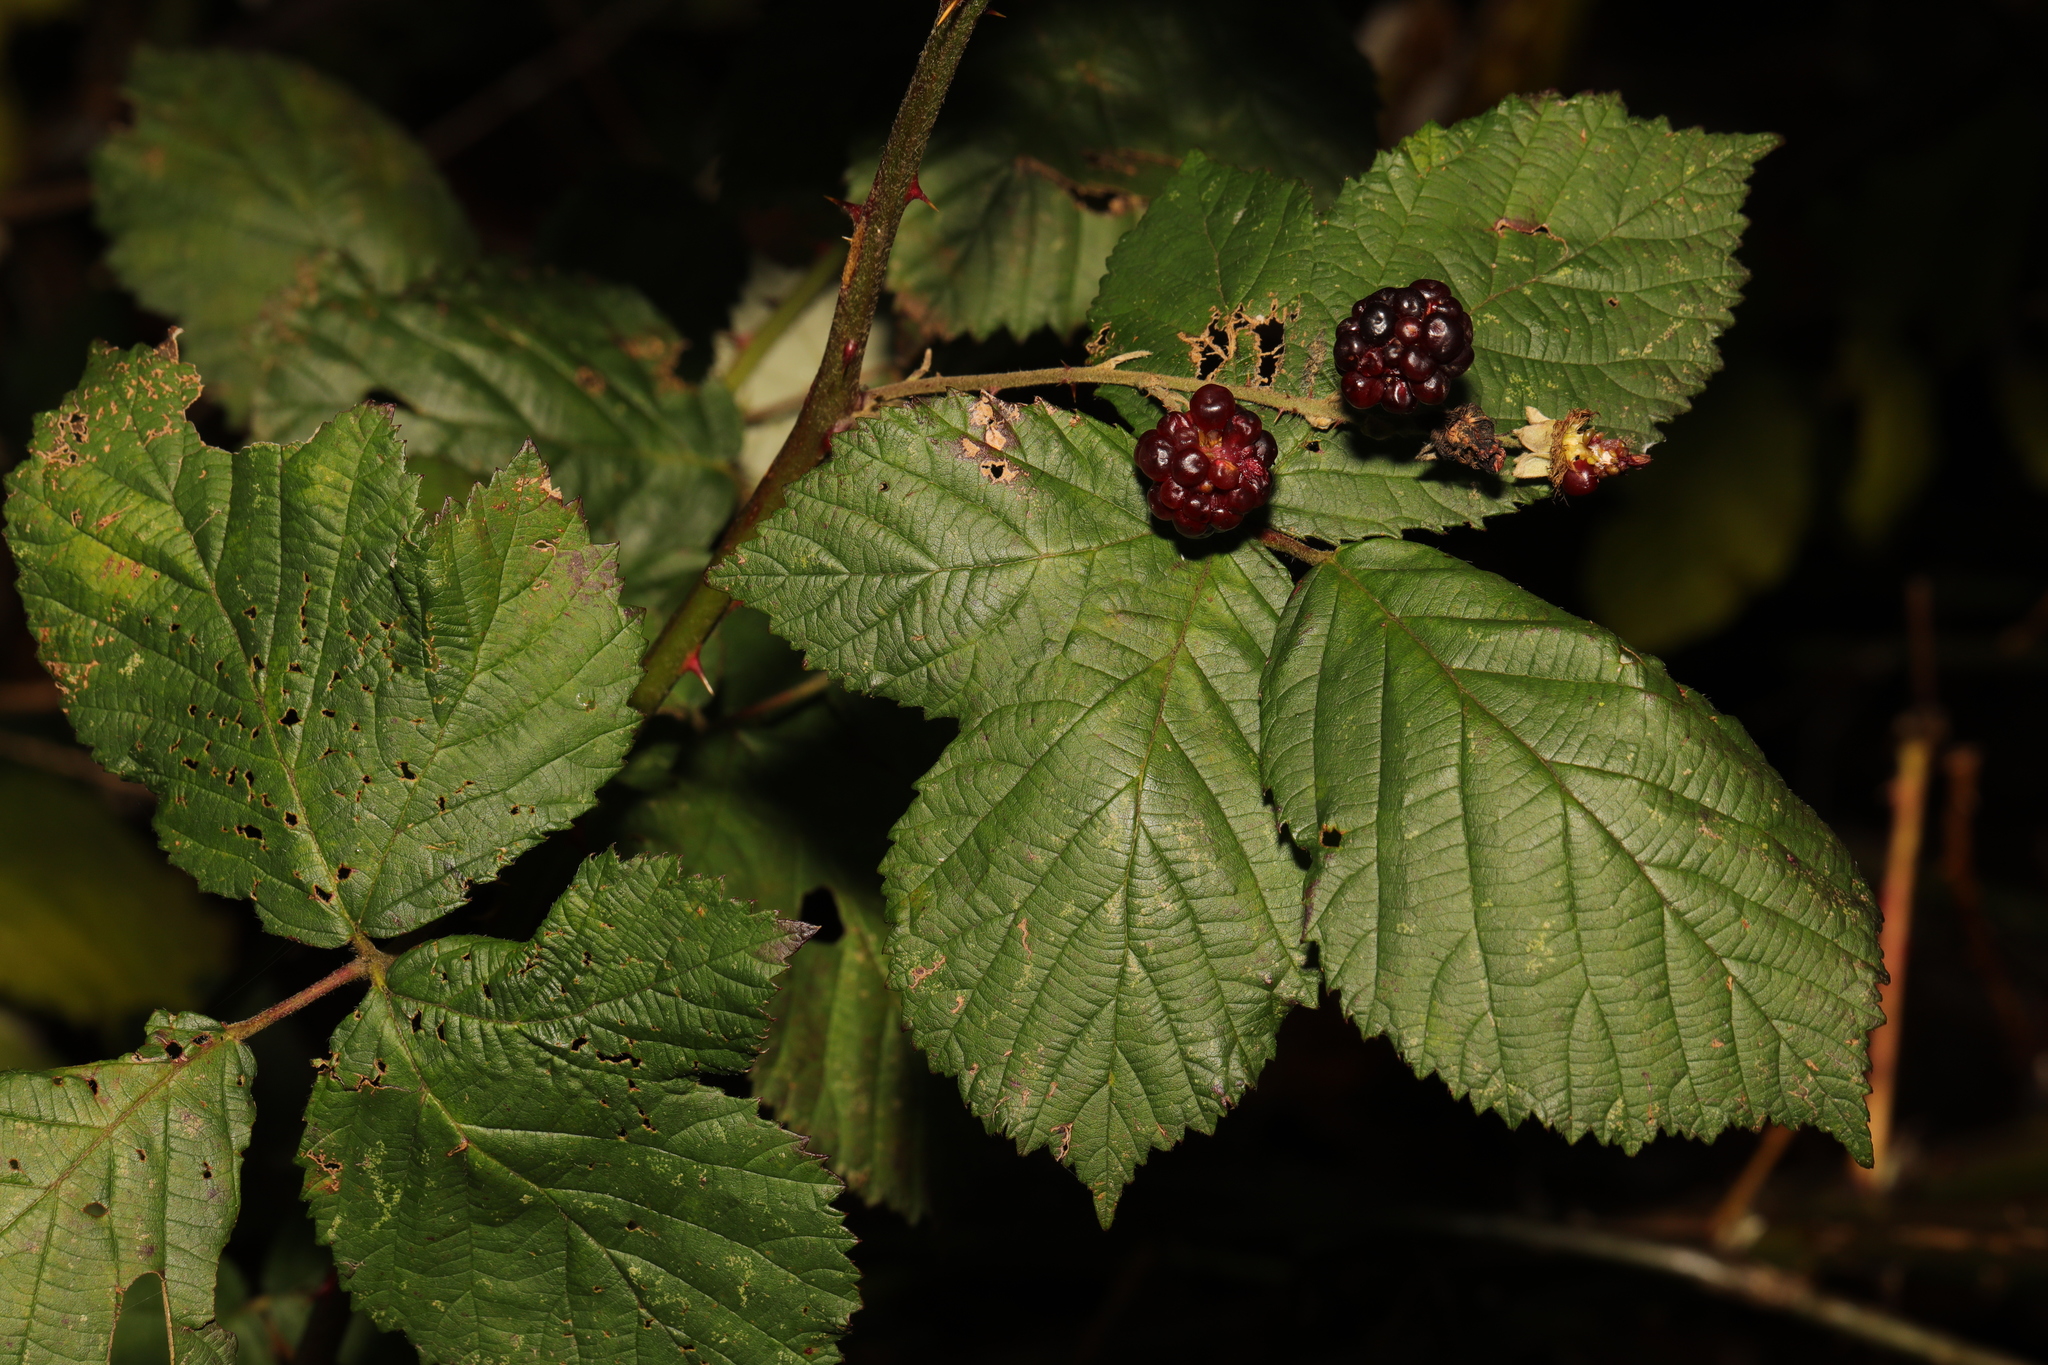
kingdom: Plantae
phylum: Tracheophyta
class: Magnoliopsida
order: Rosales
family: Rosaceae
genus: Rubus
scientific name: Rubus armeniacus
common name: Himalayan blackberry
